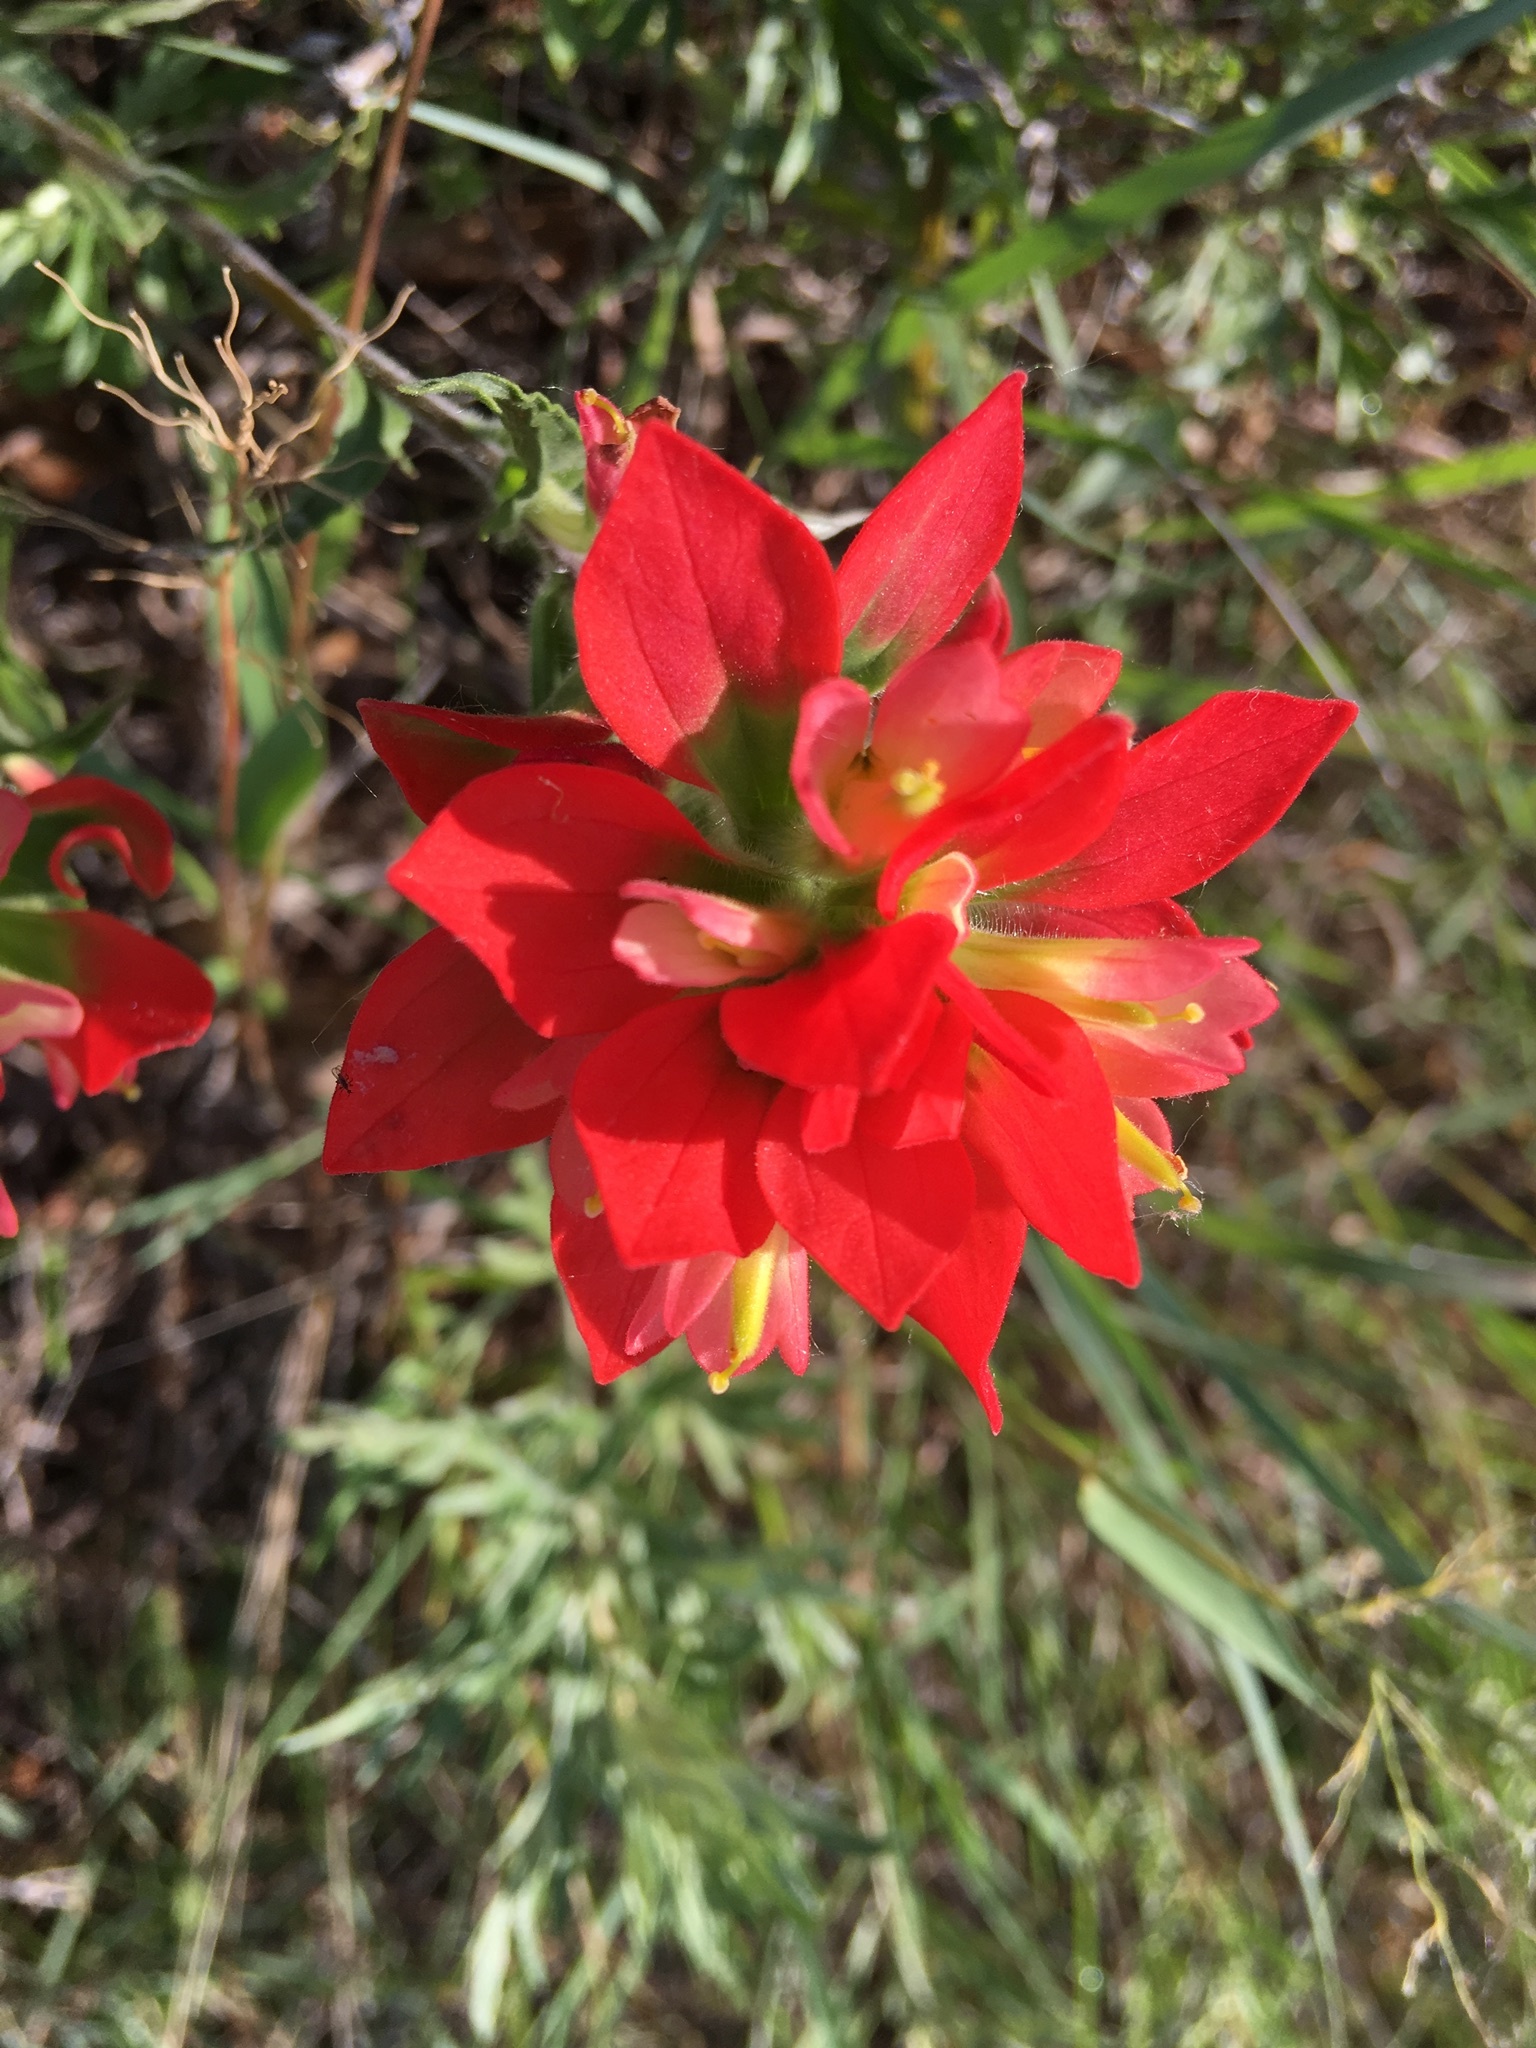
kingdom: Plantae
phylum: Tracheophyta
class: Magnoliopsida
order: Lamiales
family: Orobanchaceae
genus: Castilleja
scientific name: Castilleja indivisa
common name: Texas paintbrush
